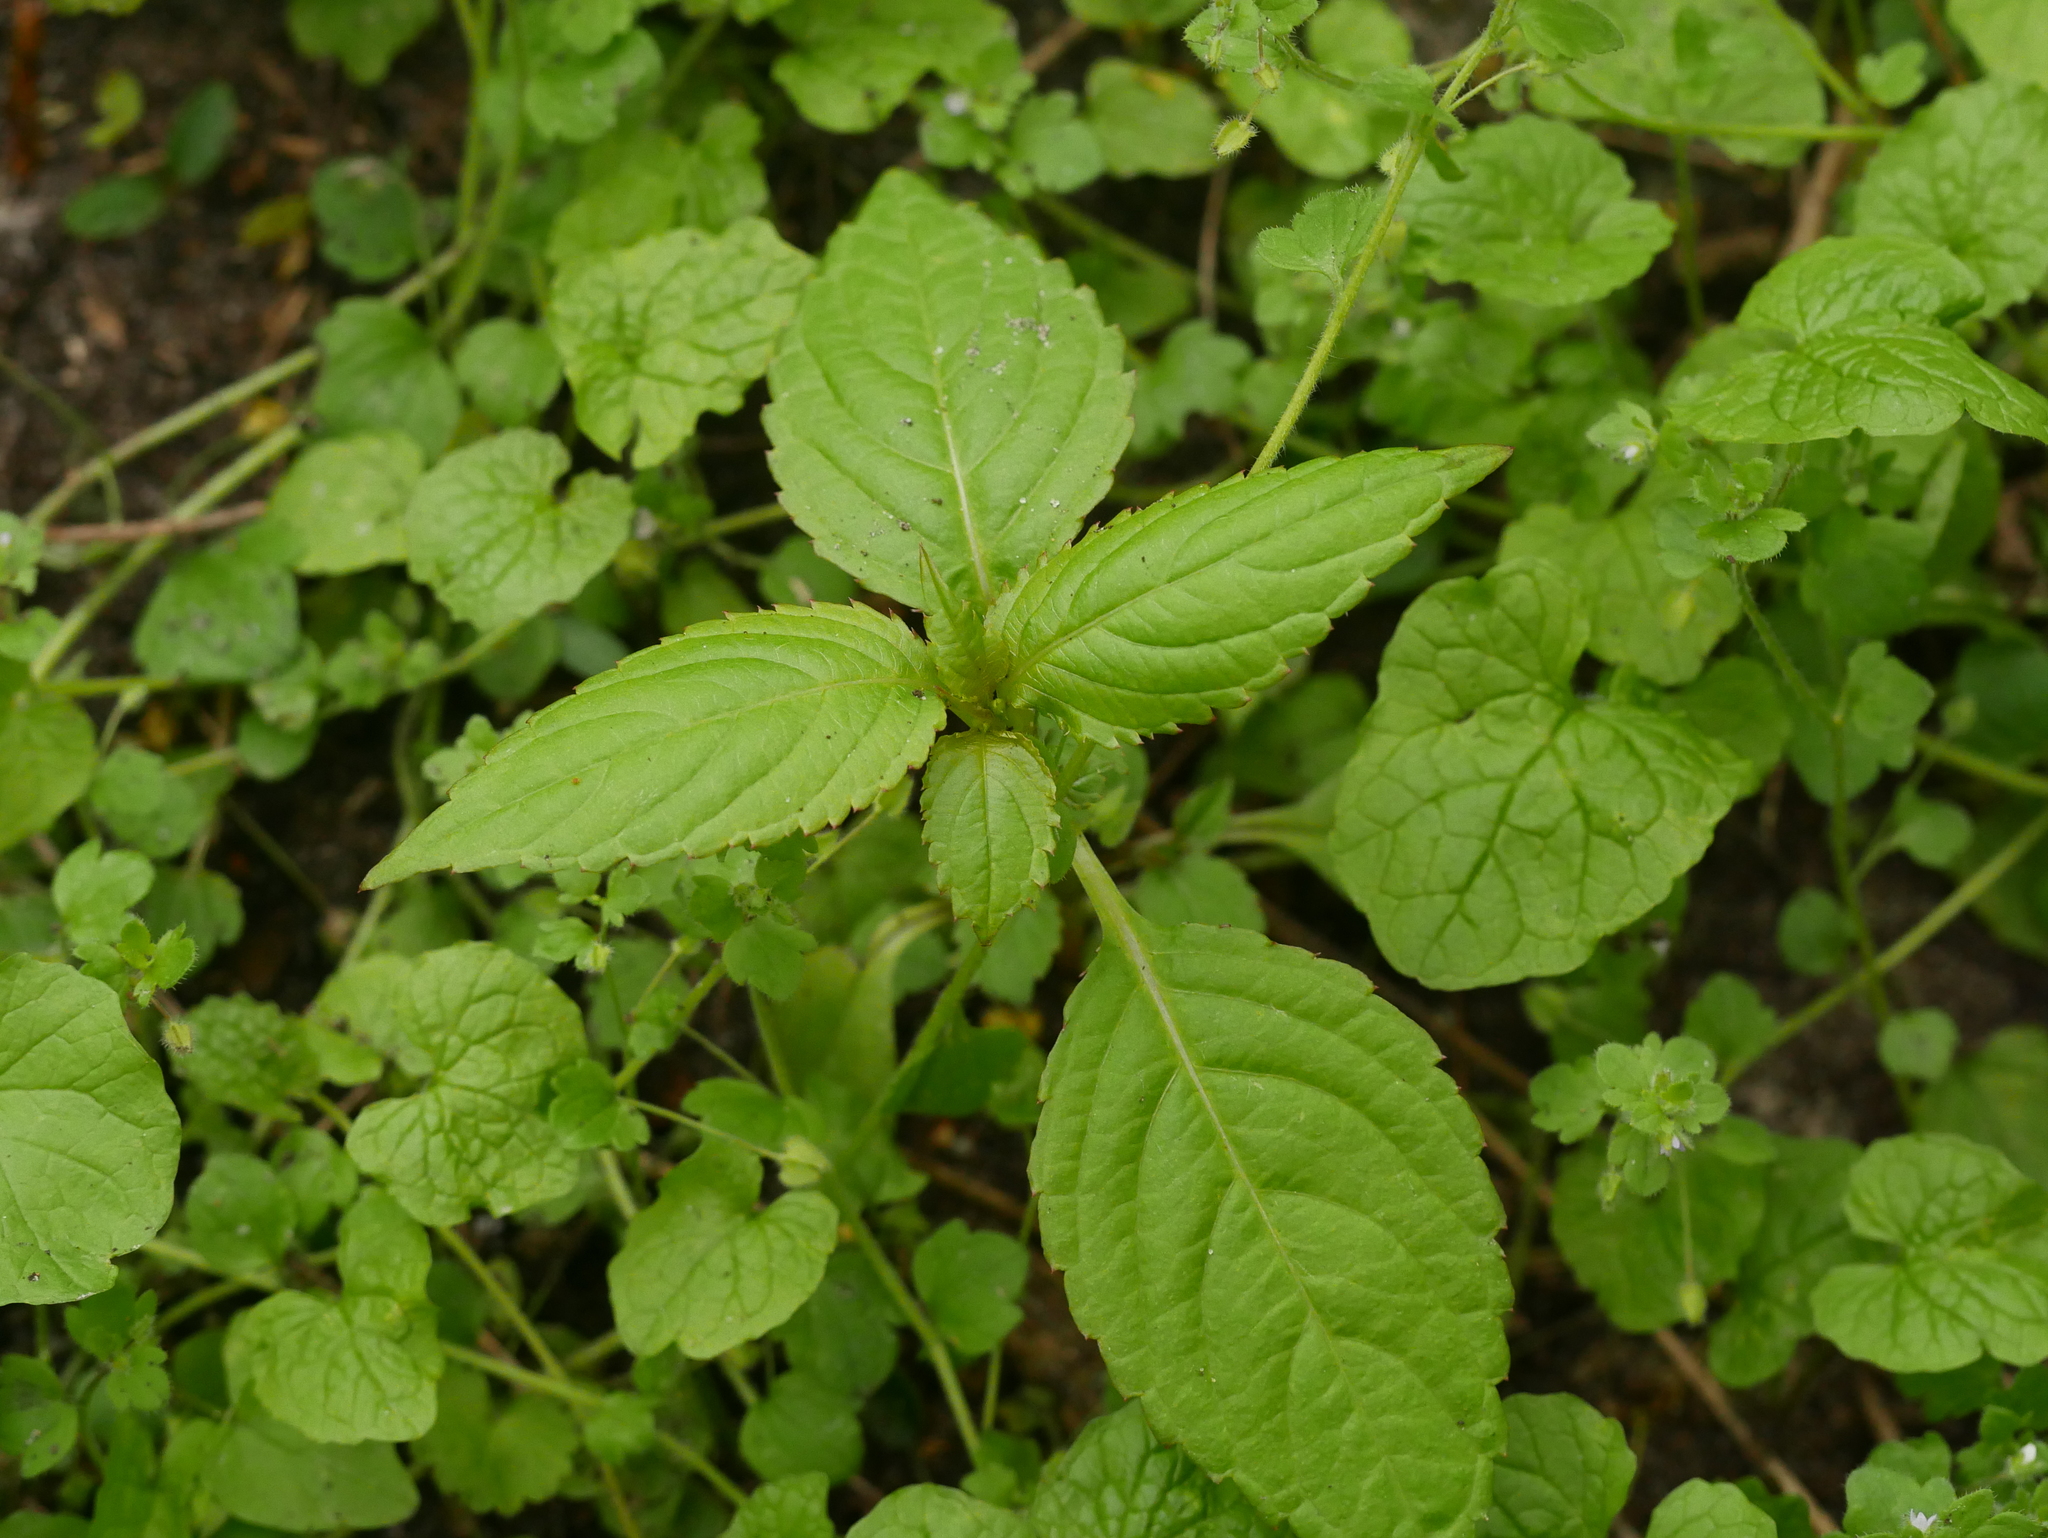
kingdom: Plantae
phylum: Tracheophyta
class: Magnoliopsida
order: Ericales
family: Balsaminaceae
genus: Impatiens
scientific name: Impatiens parviflora
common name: Small balsam
